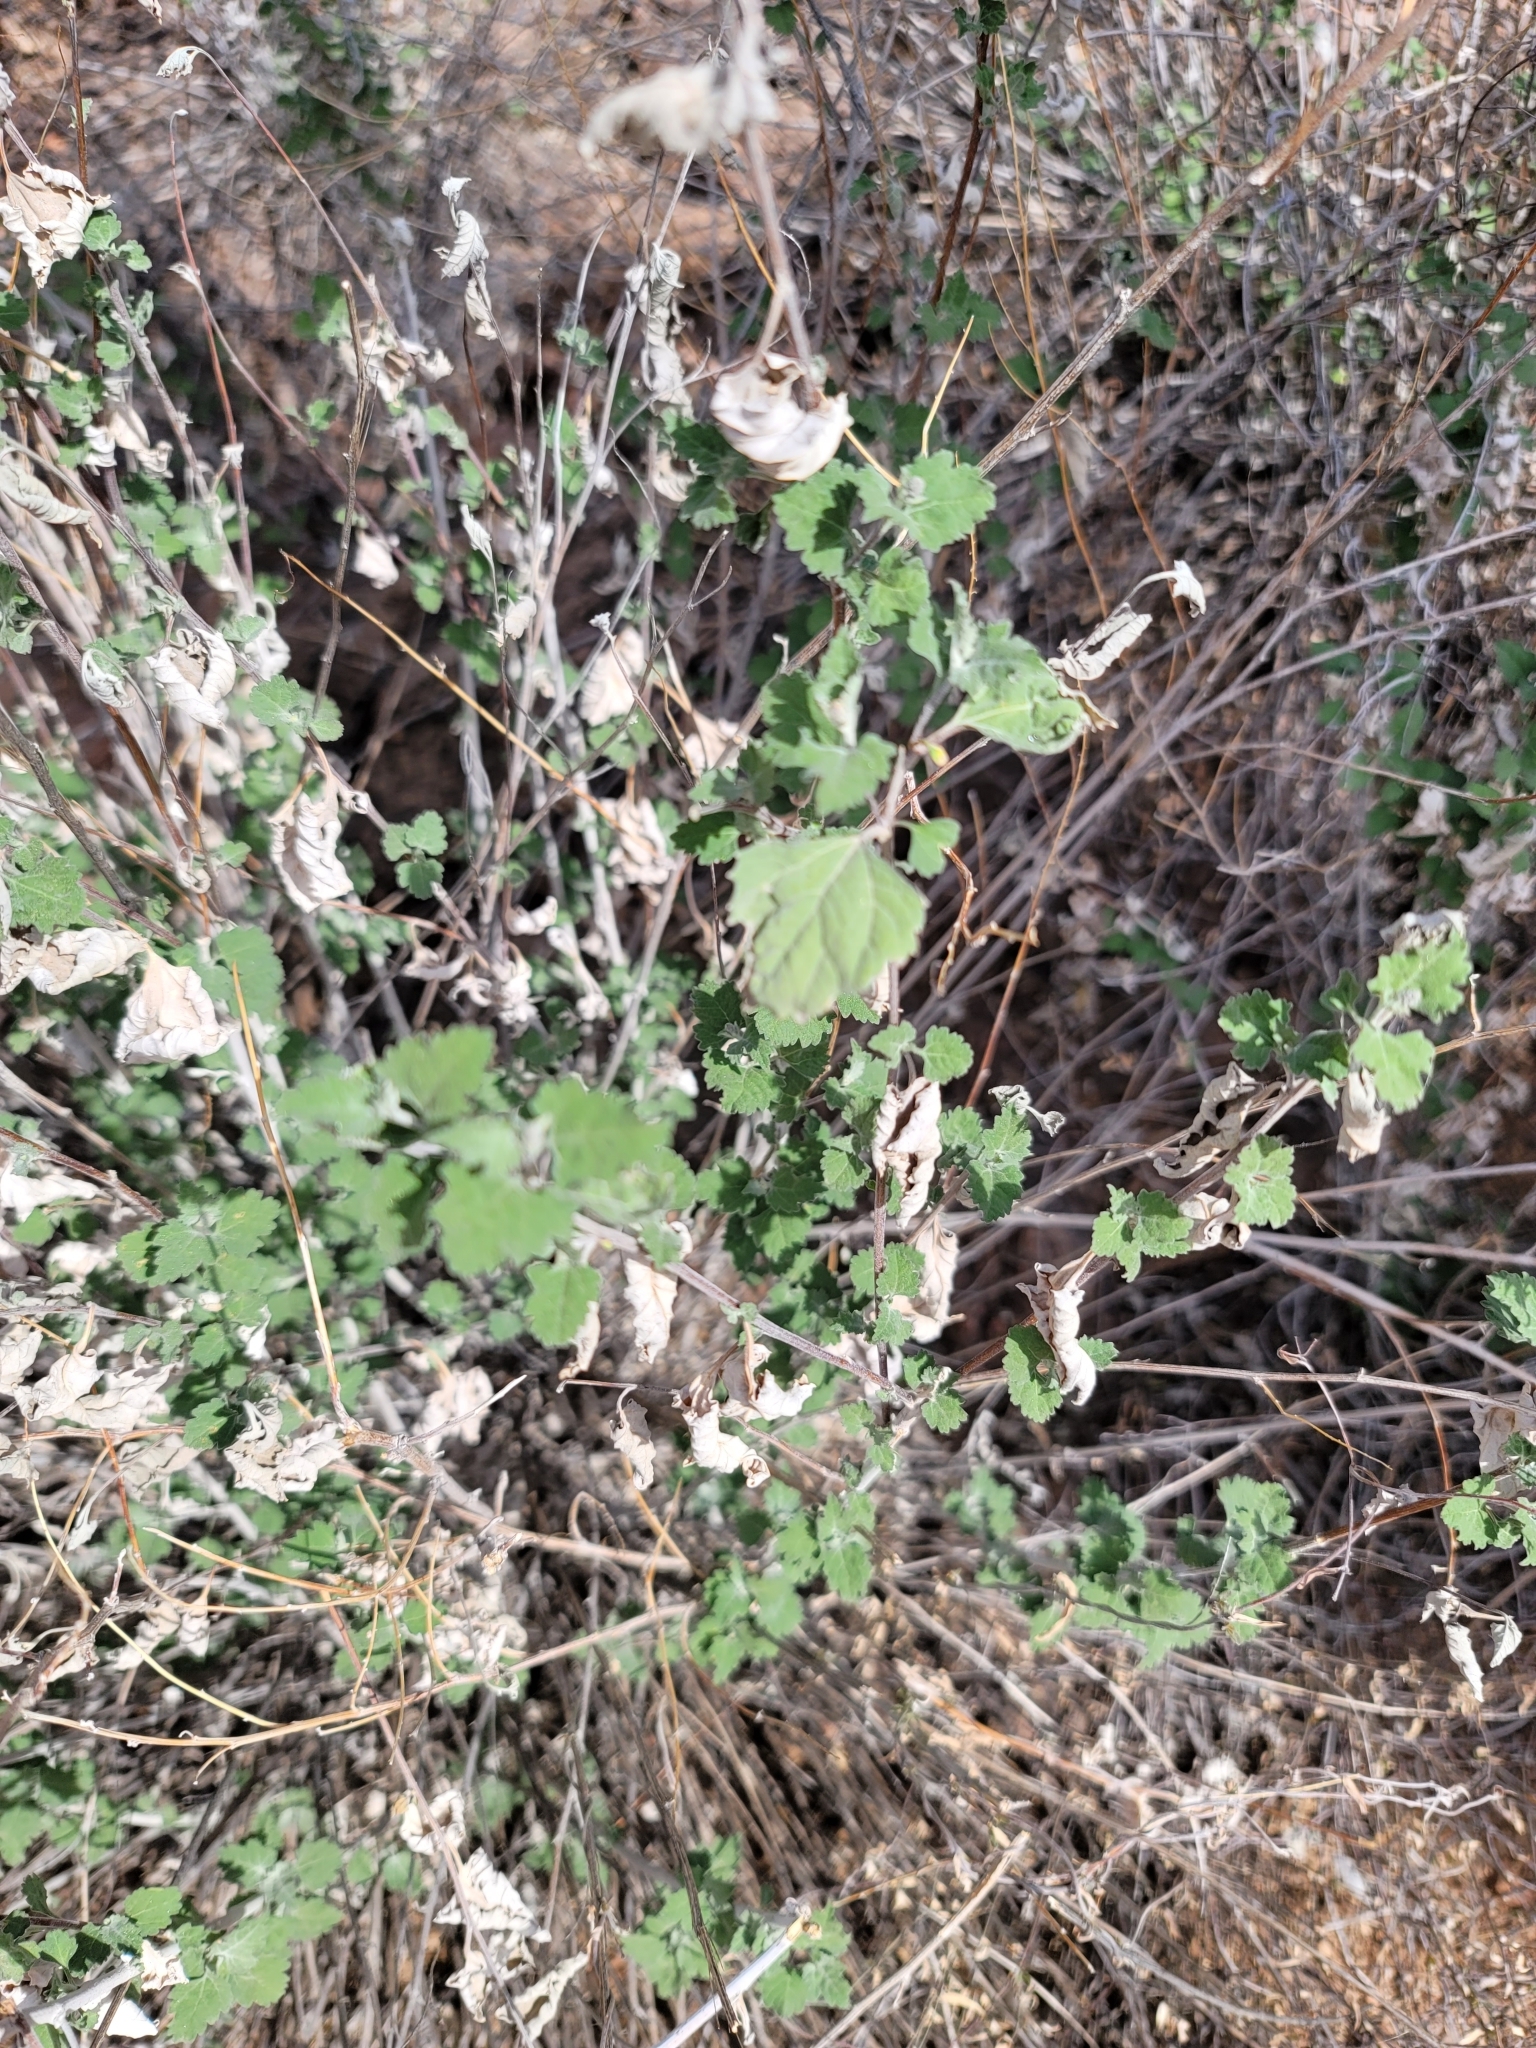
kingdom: Plantae
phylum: Tracheophyta
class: Magnoliopsida
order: Asterales
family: Asteraceae
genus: Ambrosia
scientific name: Ambrosia cordifolia
